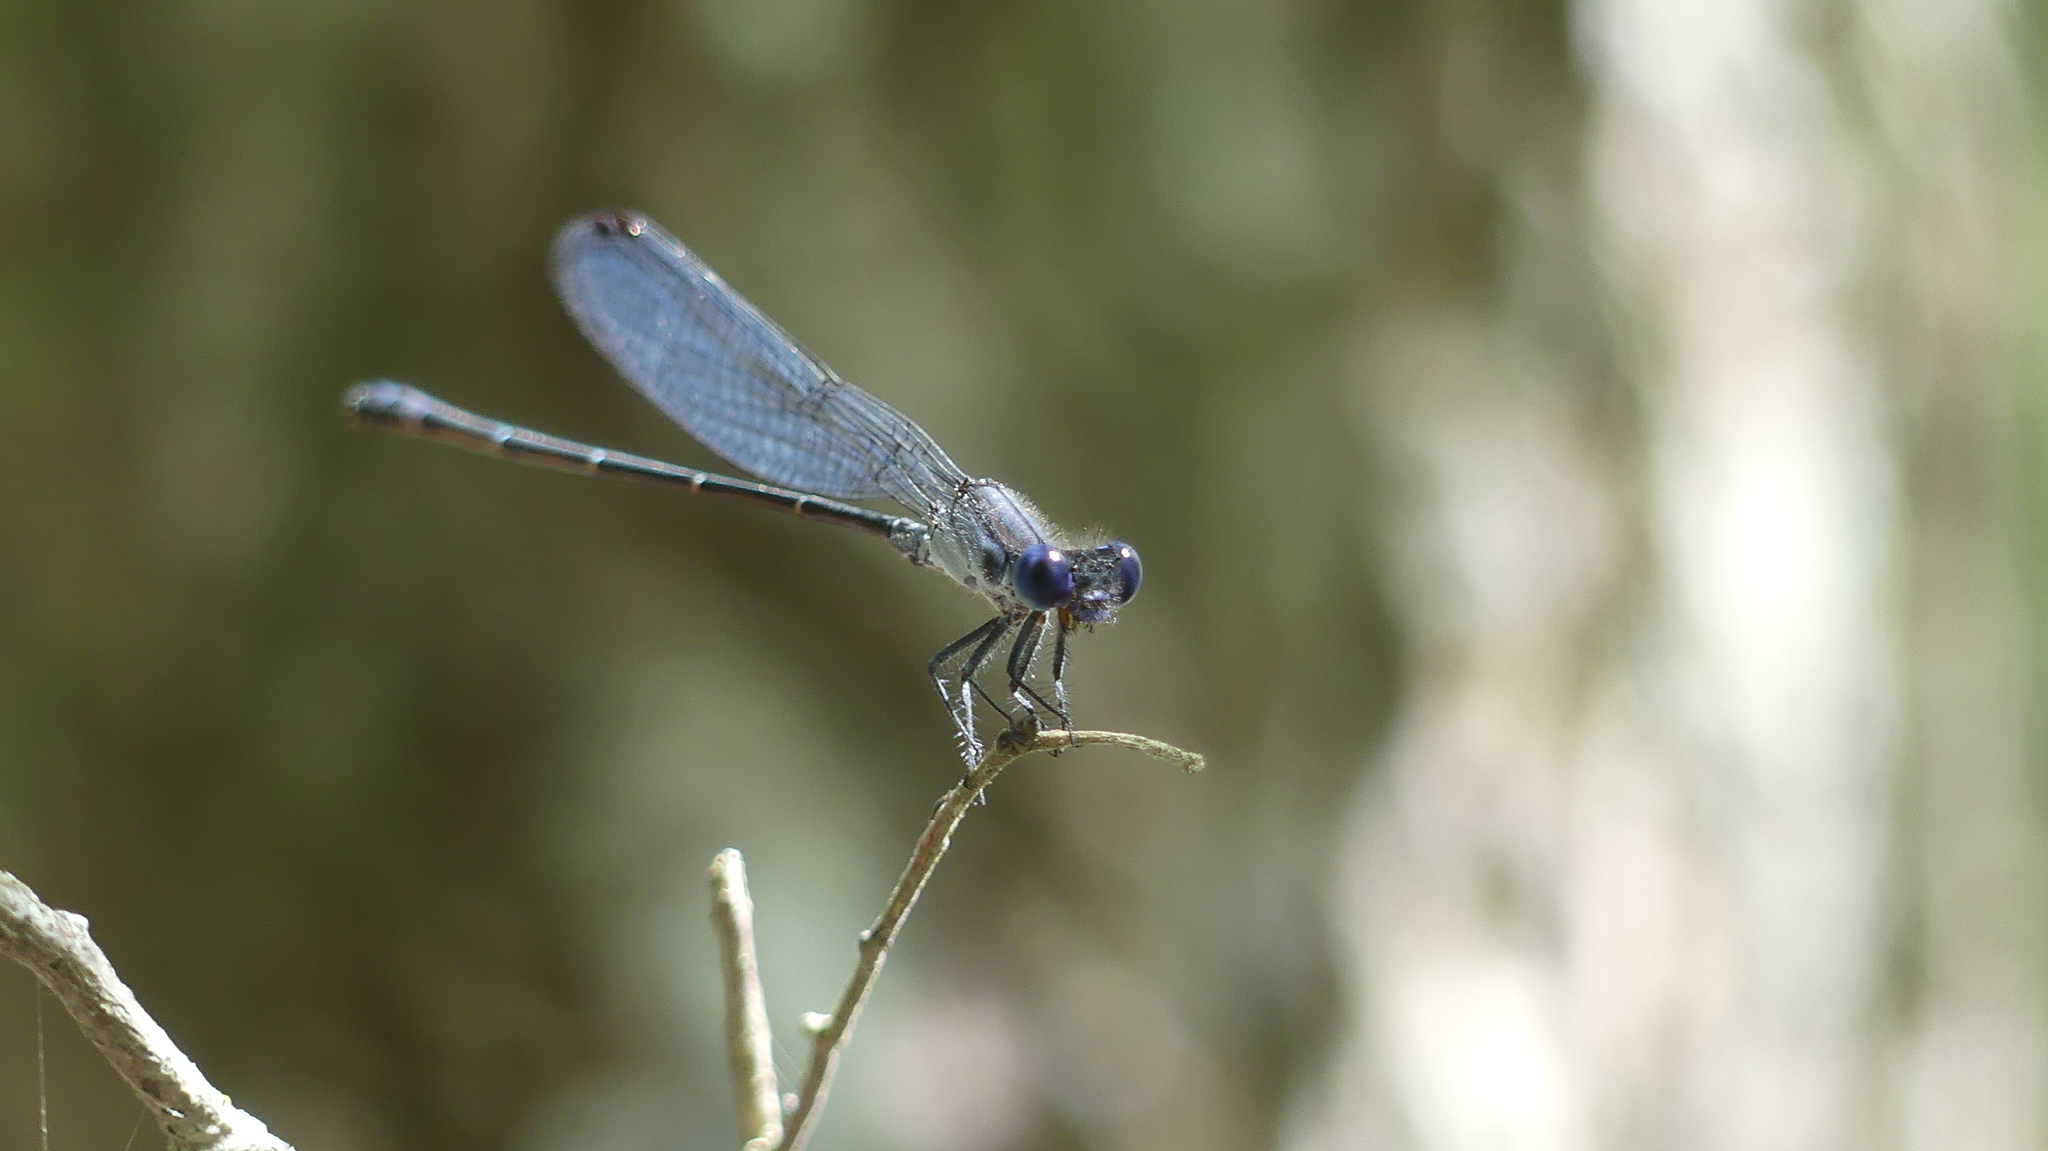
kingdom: Animalia
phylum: Arthropoda
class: Insecta
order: Odonata
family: Coenagrionidae
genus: Argia
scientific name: Argia translata
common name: Dusky dancer
